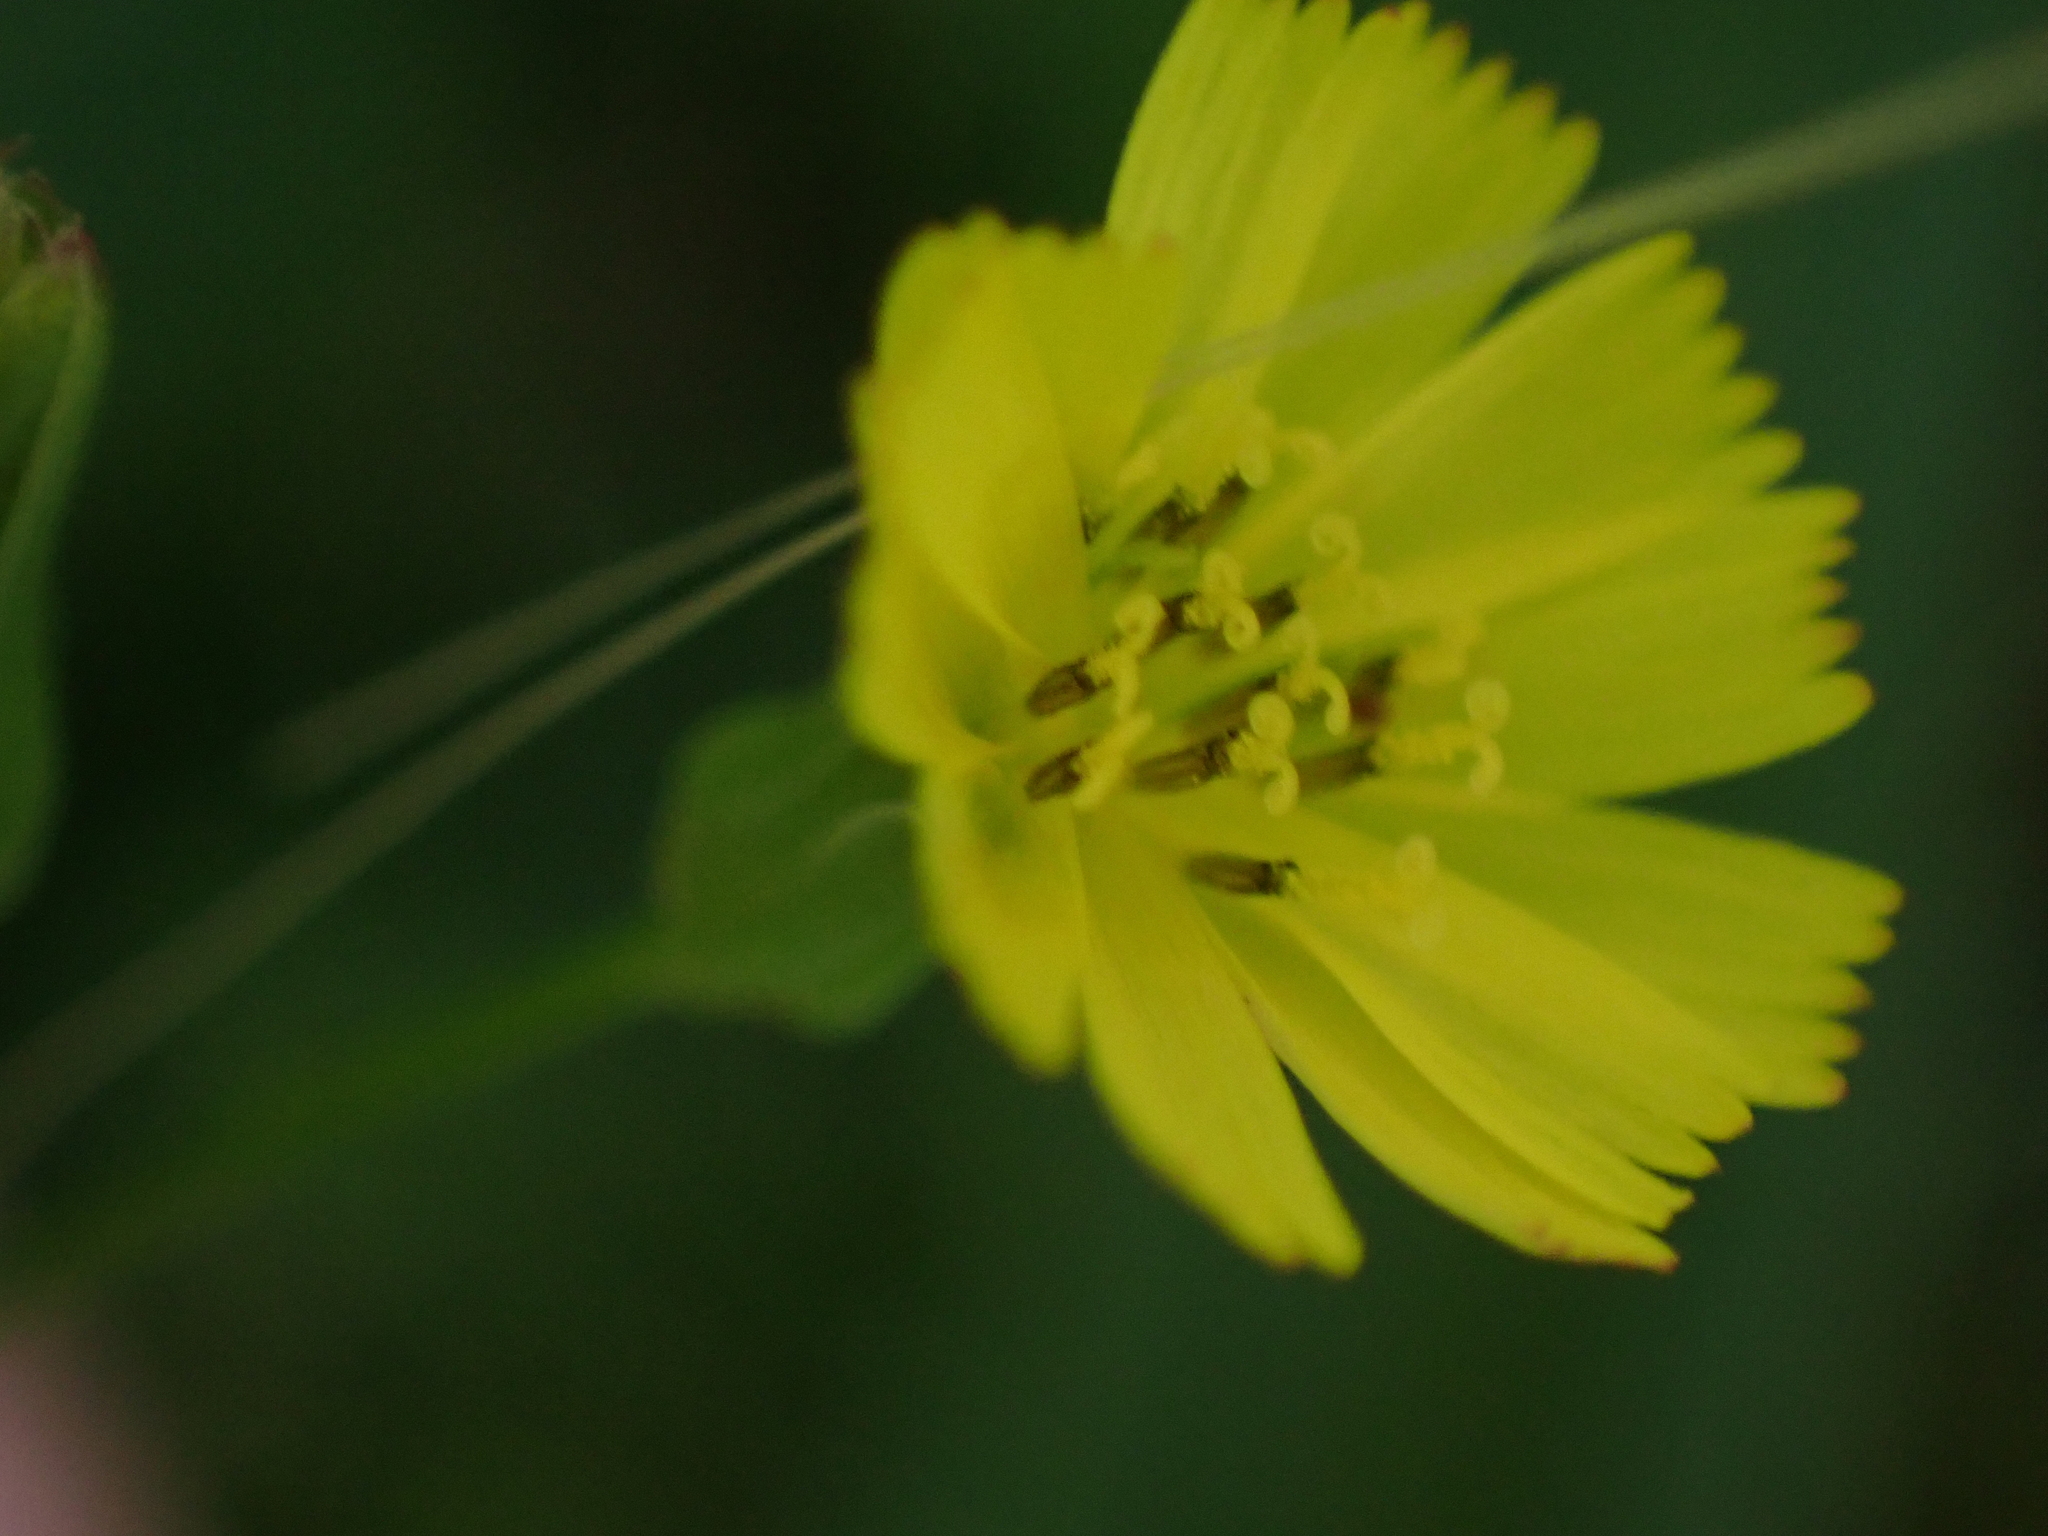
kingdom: Plantae
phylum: Tracheophyta
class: Magnoliopsida
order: Asterales
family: Asteraceae
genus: Youngia
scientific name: Youngia japonica
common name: Oriental false hawksbeard
